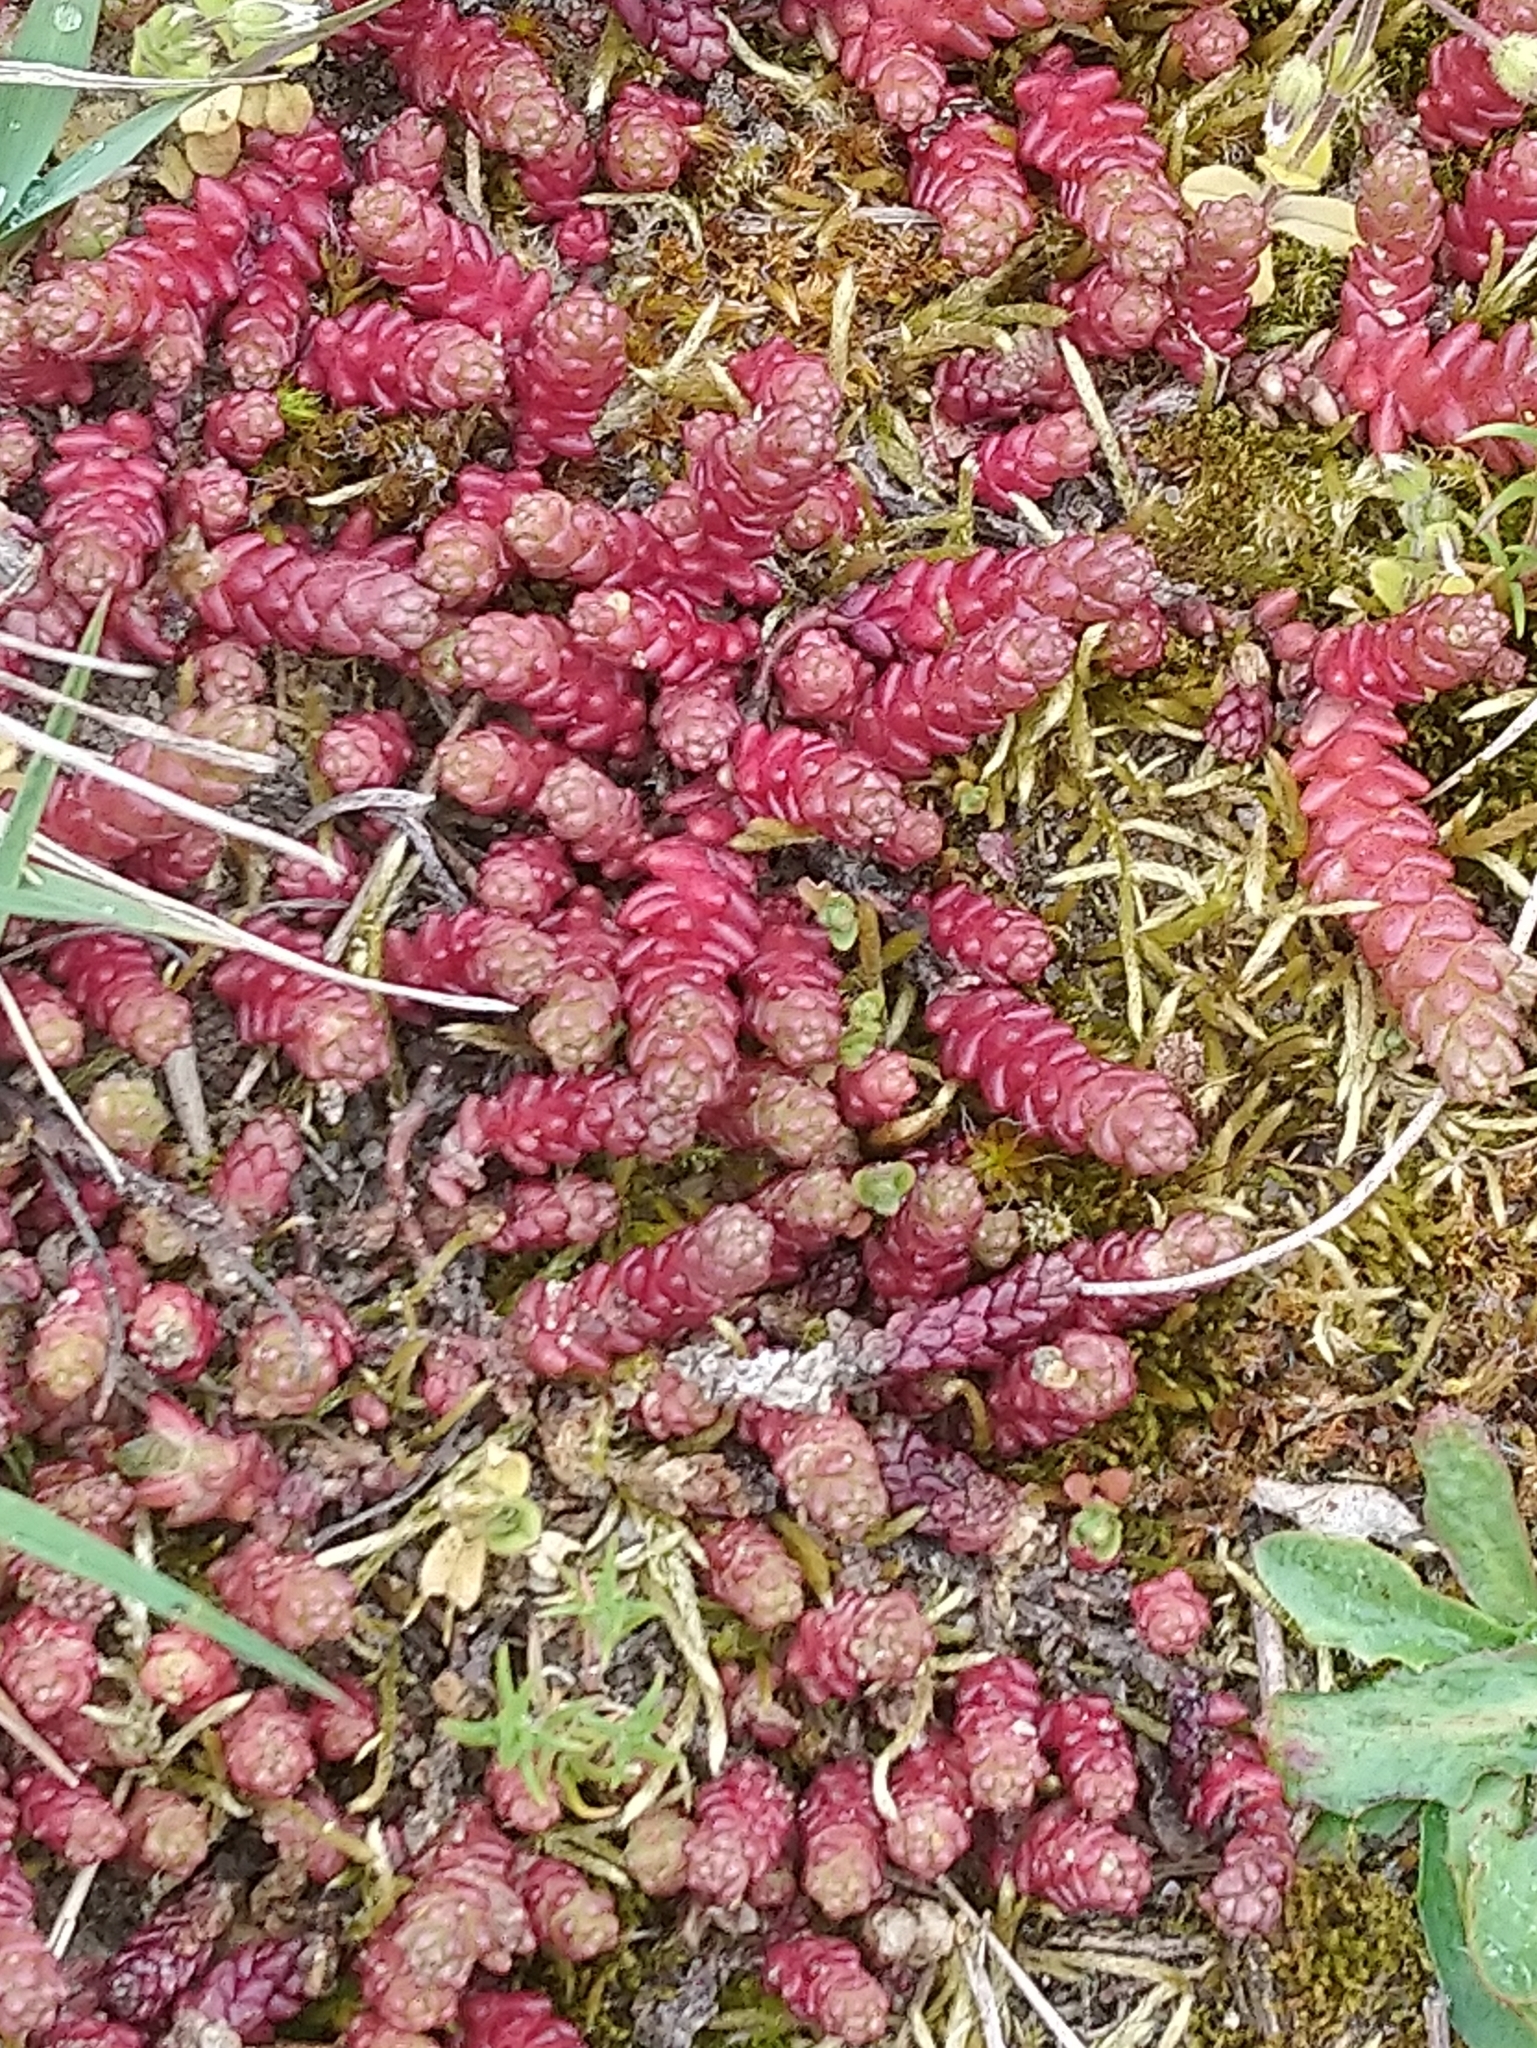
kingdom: Plantae
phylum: Tracheophyta
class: Magnoliopsida
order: Saxifragales
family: Crassulaceae
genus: Sedum
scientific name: Sedum acre
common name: Biting stonecrop
